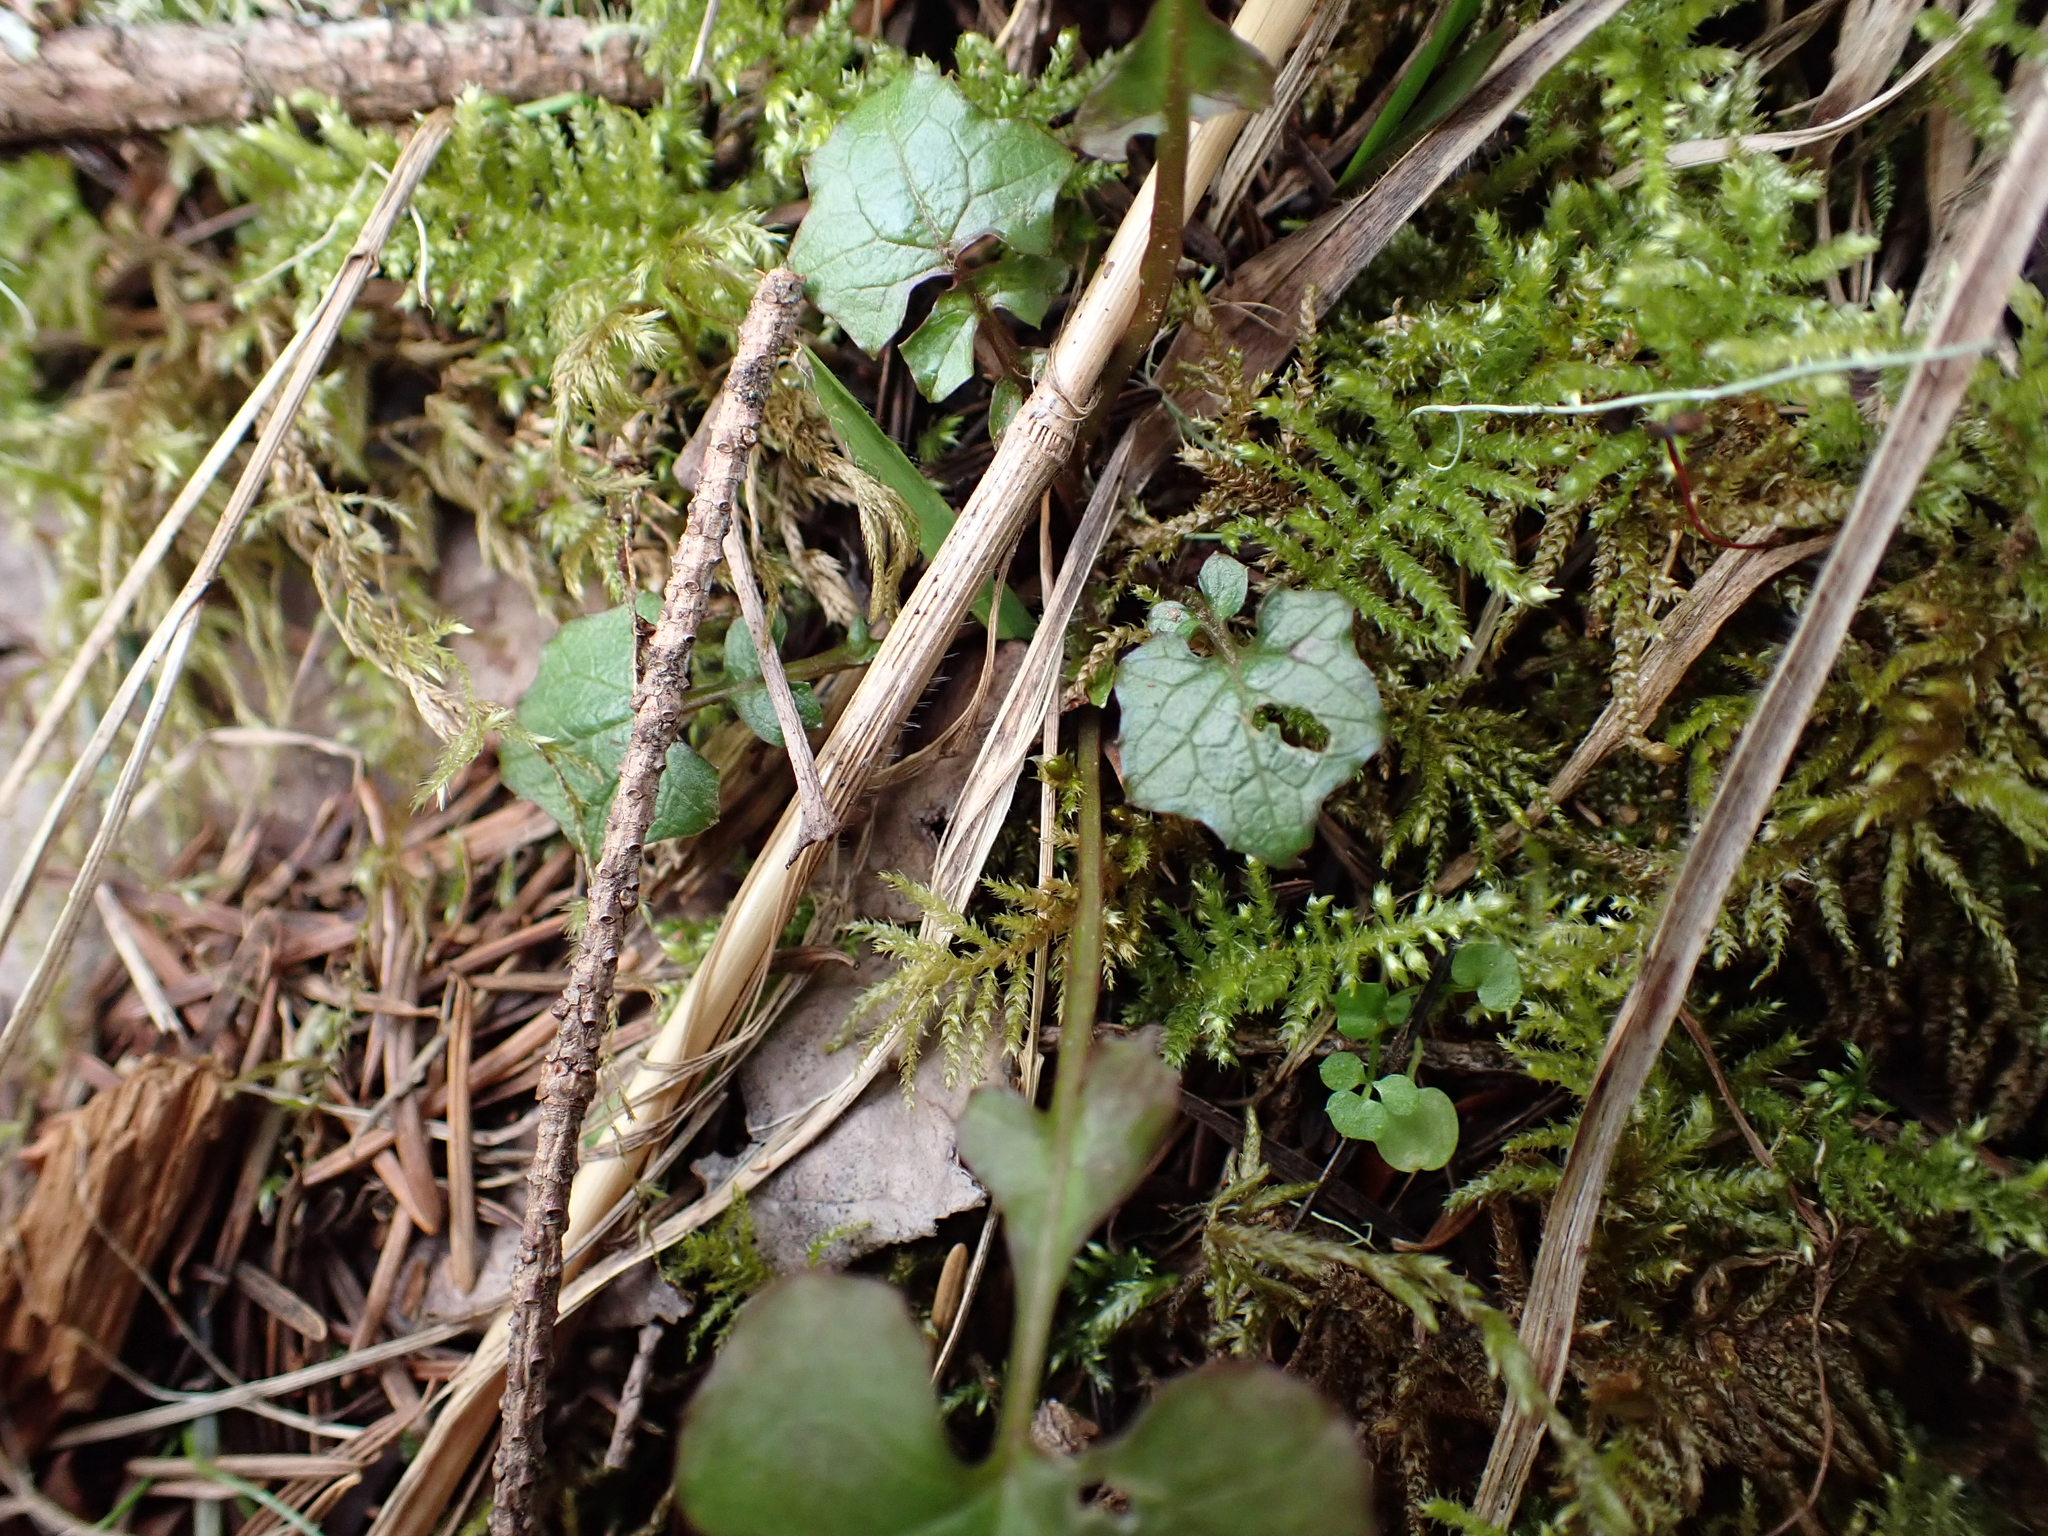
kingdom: Plantae
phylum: Tracheophyta
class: Magnoliopsida
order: Asterales
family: Asteraceae
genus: Mycelis
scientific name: Mycelis muralis
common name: Wall lettuce
